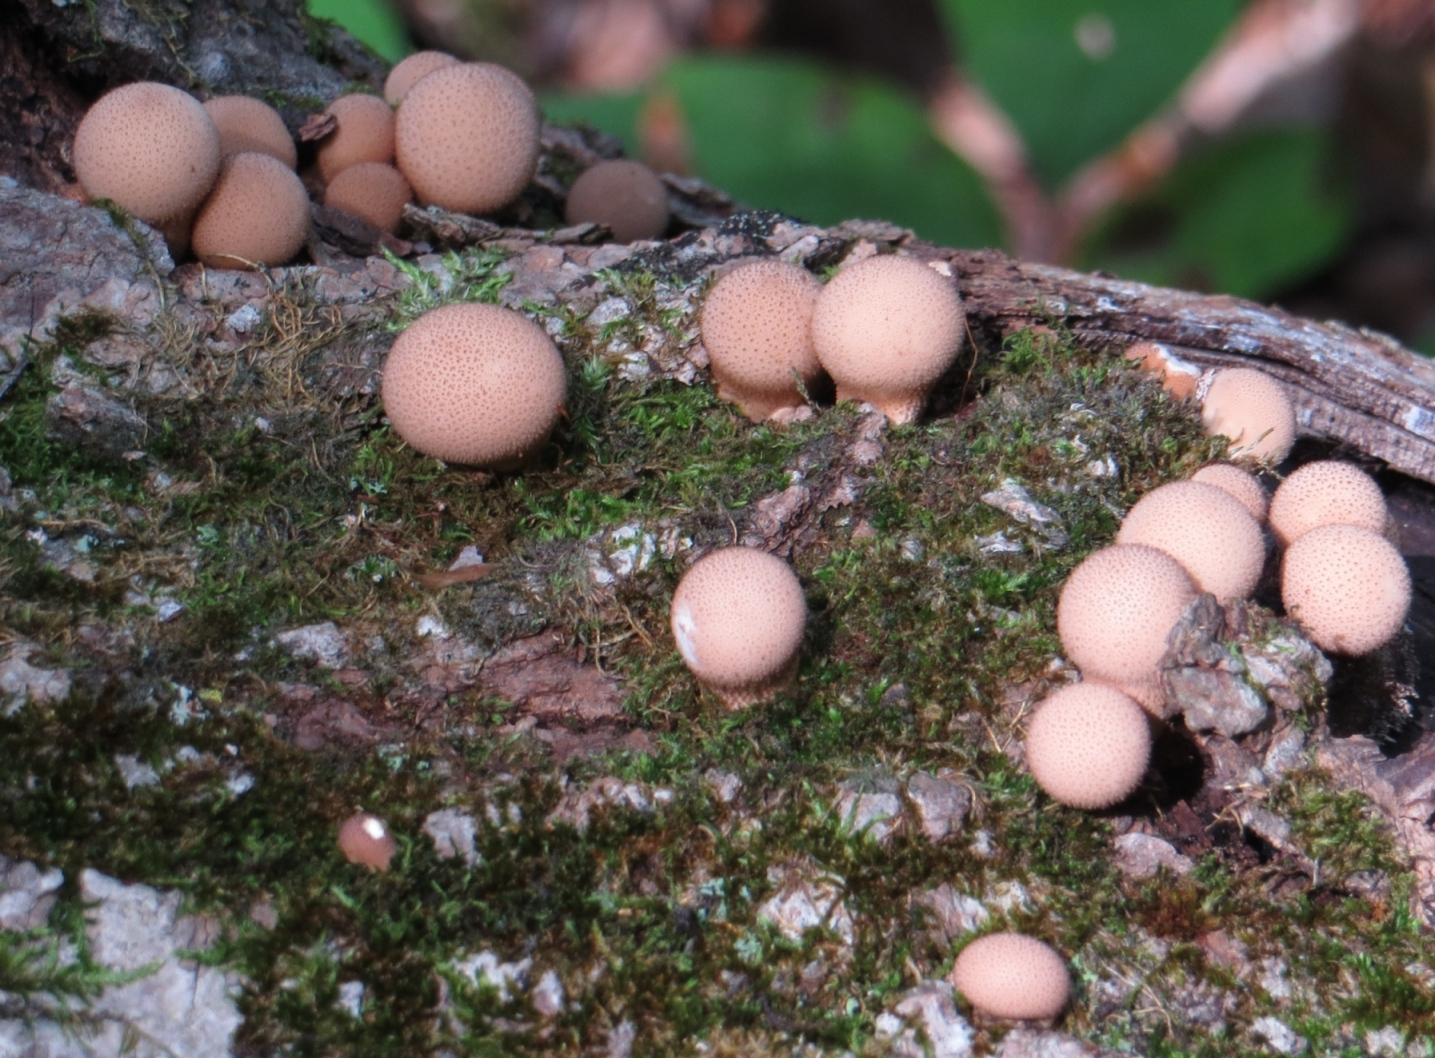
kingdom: Fungi
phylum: Basidiomycota
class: Agaricomycetes
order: Agaricales
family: Lycoperdaceae
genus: Apioperdon
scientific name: Apioperdon pyriforme
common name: Pear-shaped puffball
